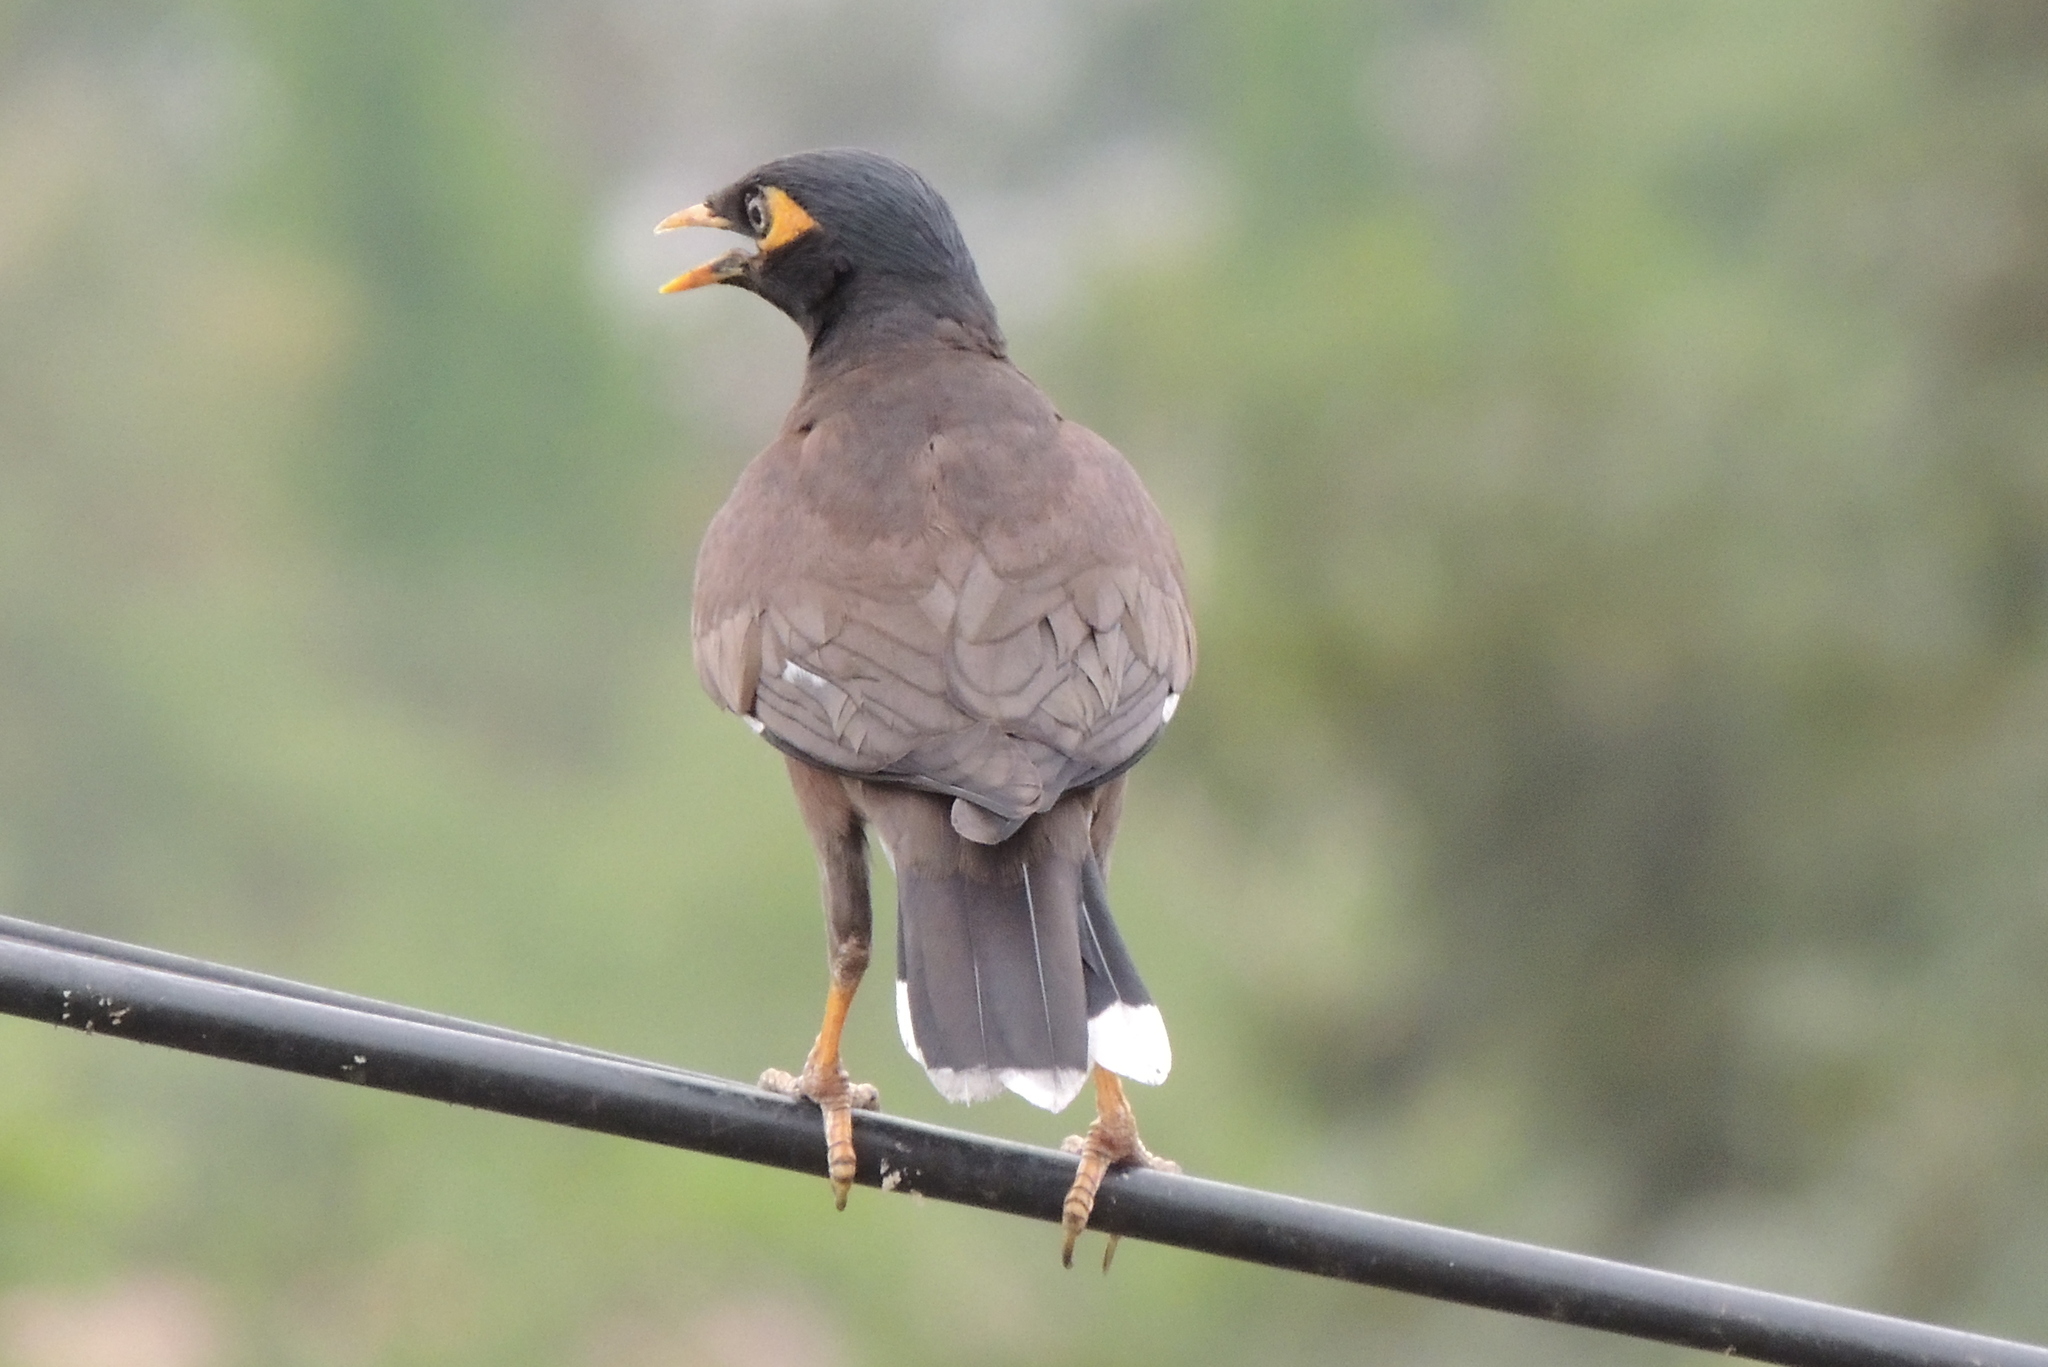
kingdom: Animalia
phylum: Chordata
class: Aves
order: Passeriformes
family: Sturnidae
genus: Acridotheres
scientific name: Acridotheres tristis
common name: Common myna
